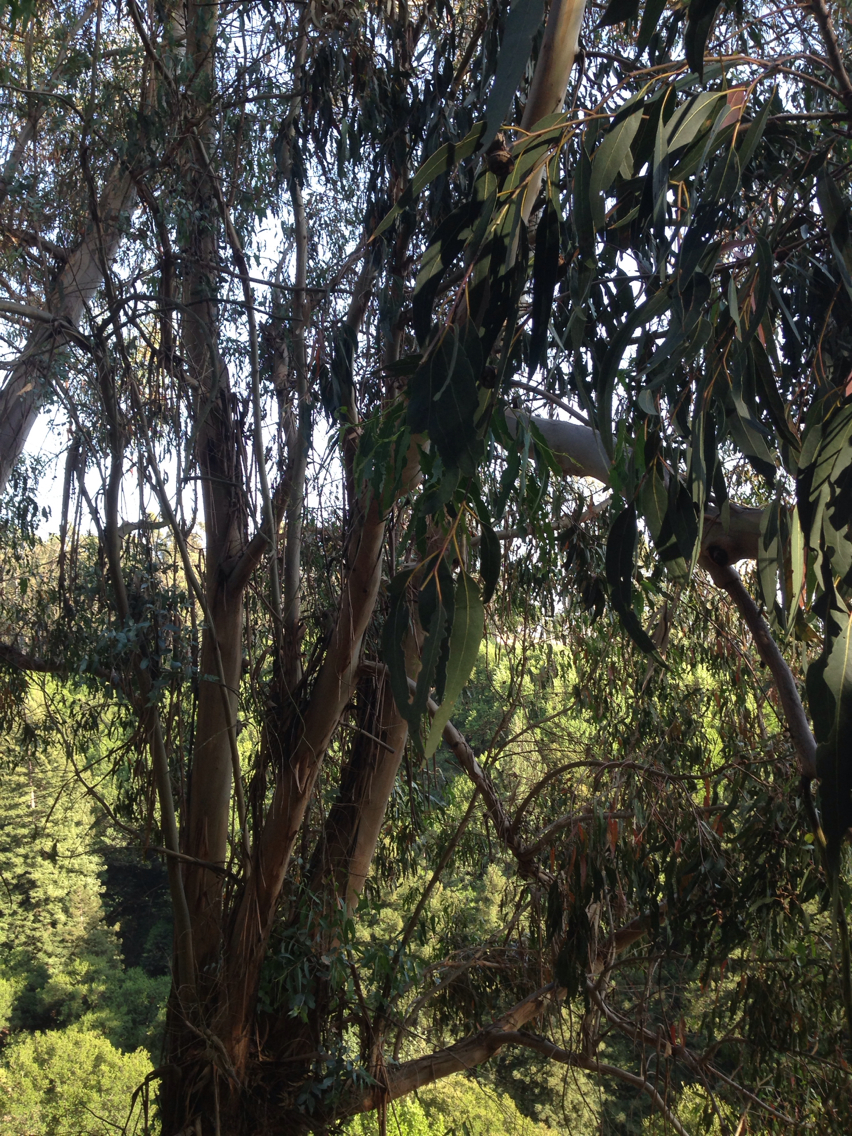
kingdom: Plantae
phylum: Tracheophyta
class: Magnoliopsida
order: Myrtales
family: Myrtaceae
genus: Eucalyptus
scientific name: Eucalyptus globulus
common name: Southern blue-gum
